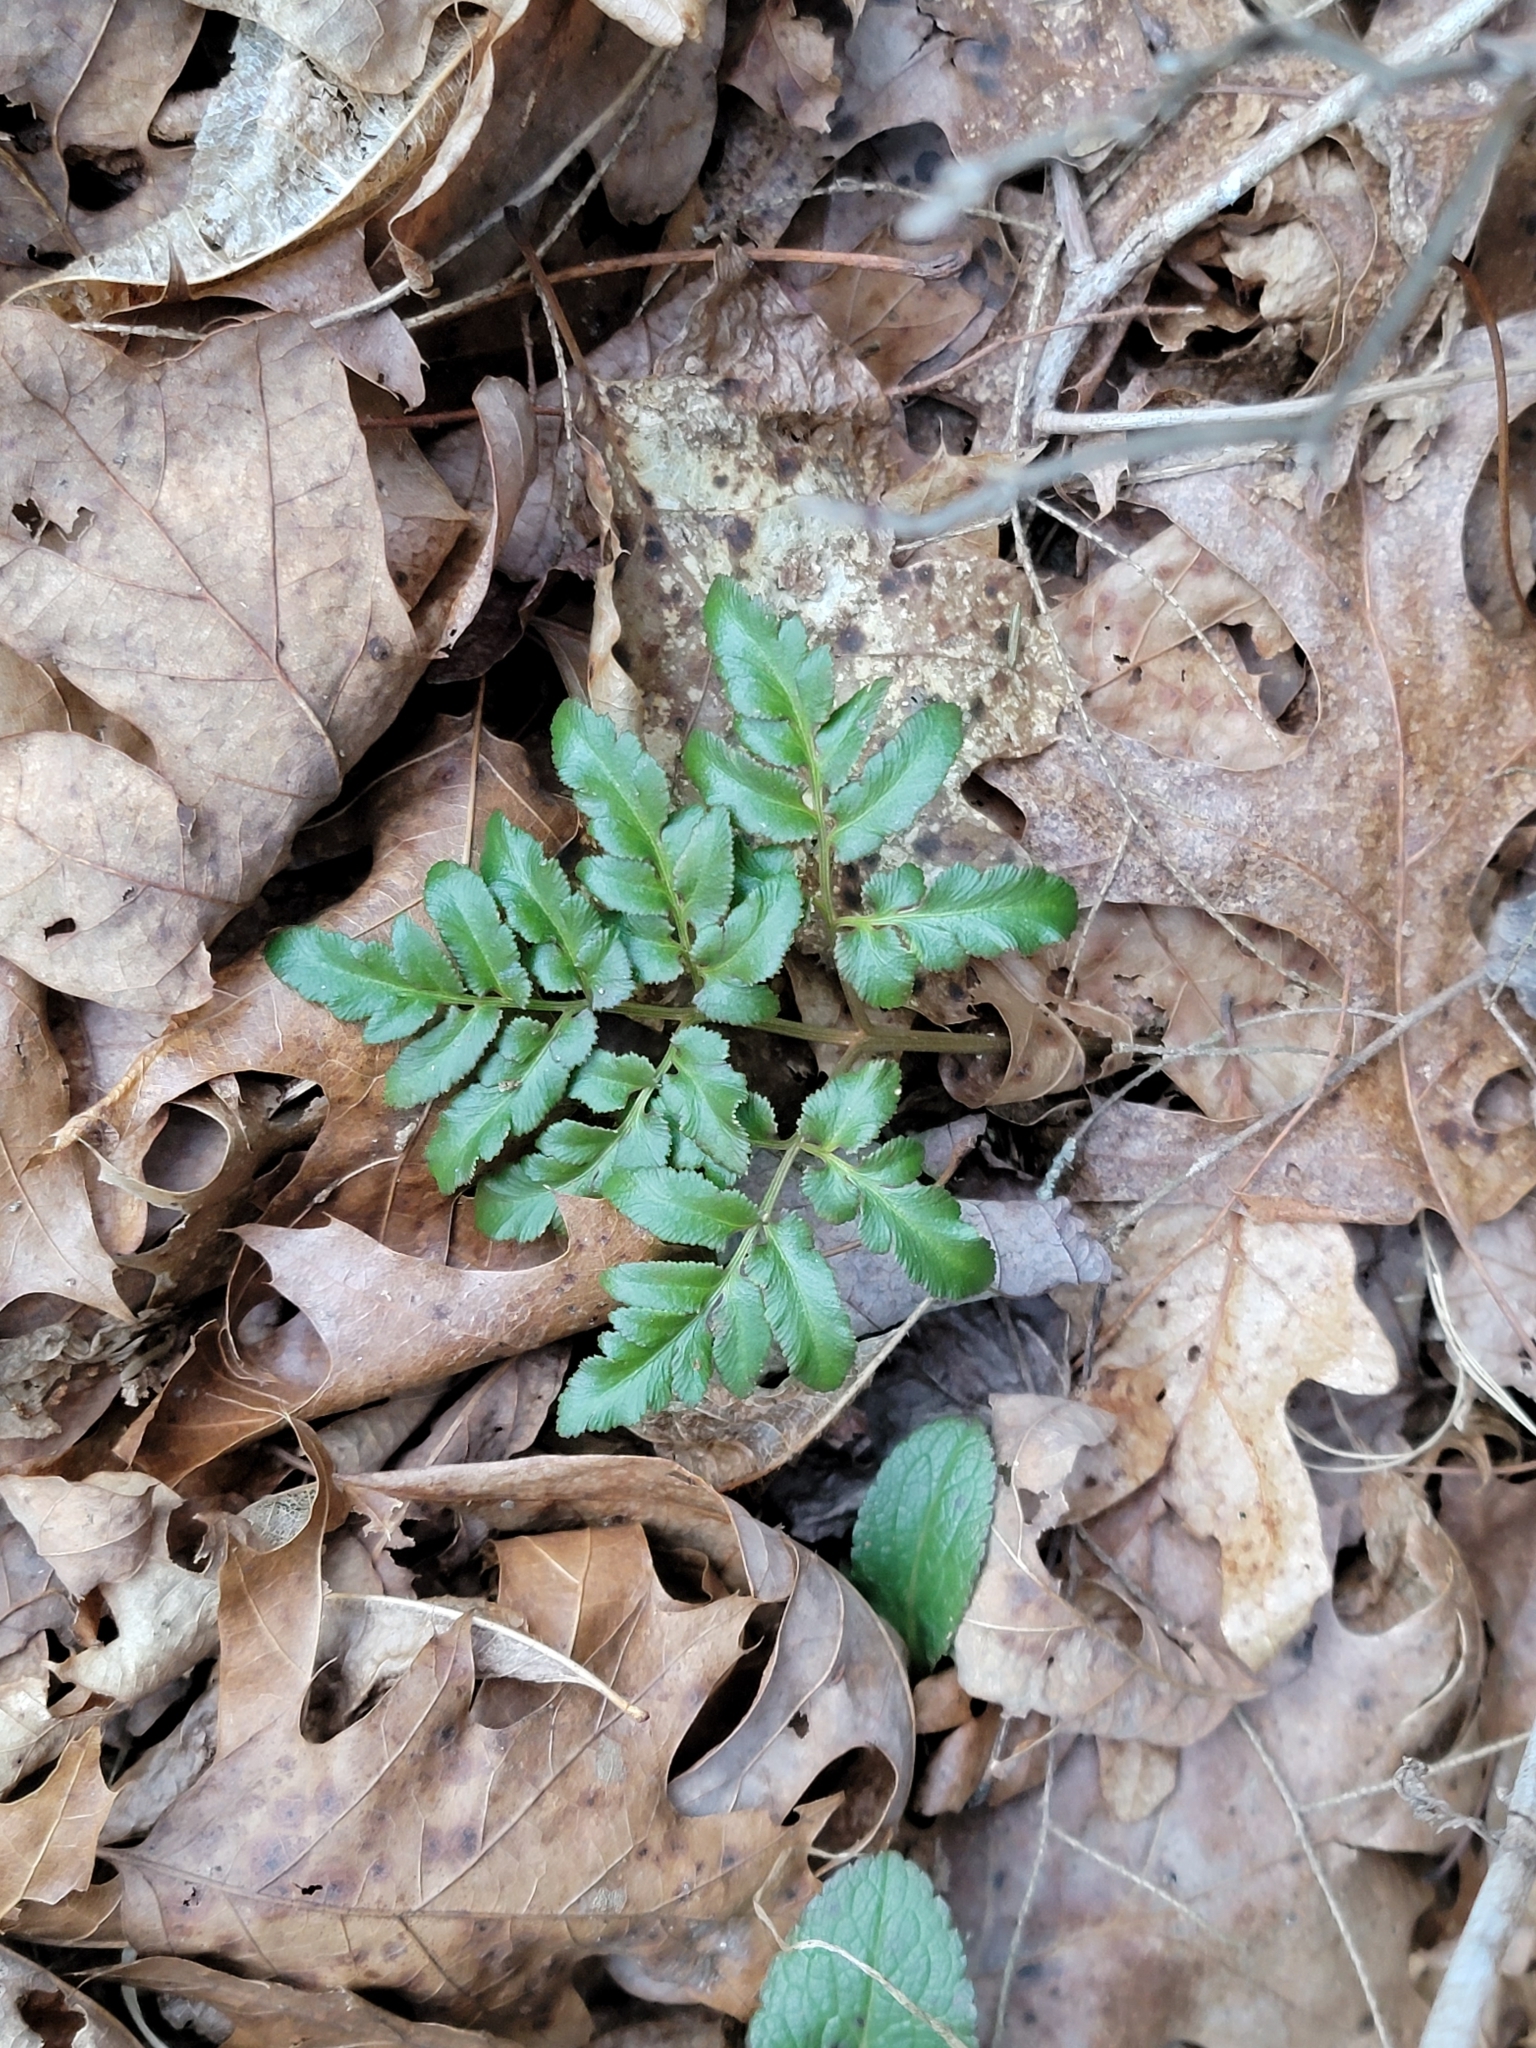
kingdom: Plantae
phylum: Tracheophyta
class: Polypodiopsida
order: Ophioglossales
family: Ophioglossaceae
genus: Sceptridium
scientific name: Sceptridium dissectum
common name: Cut-leaved grapefern
